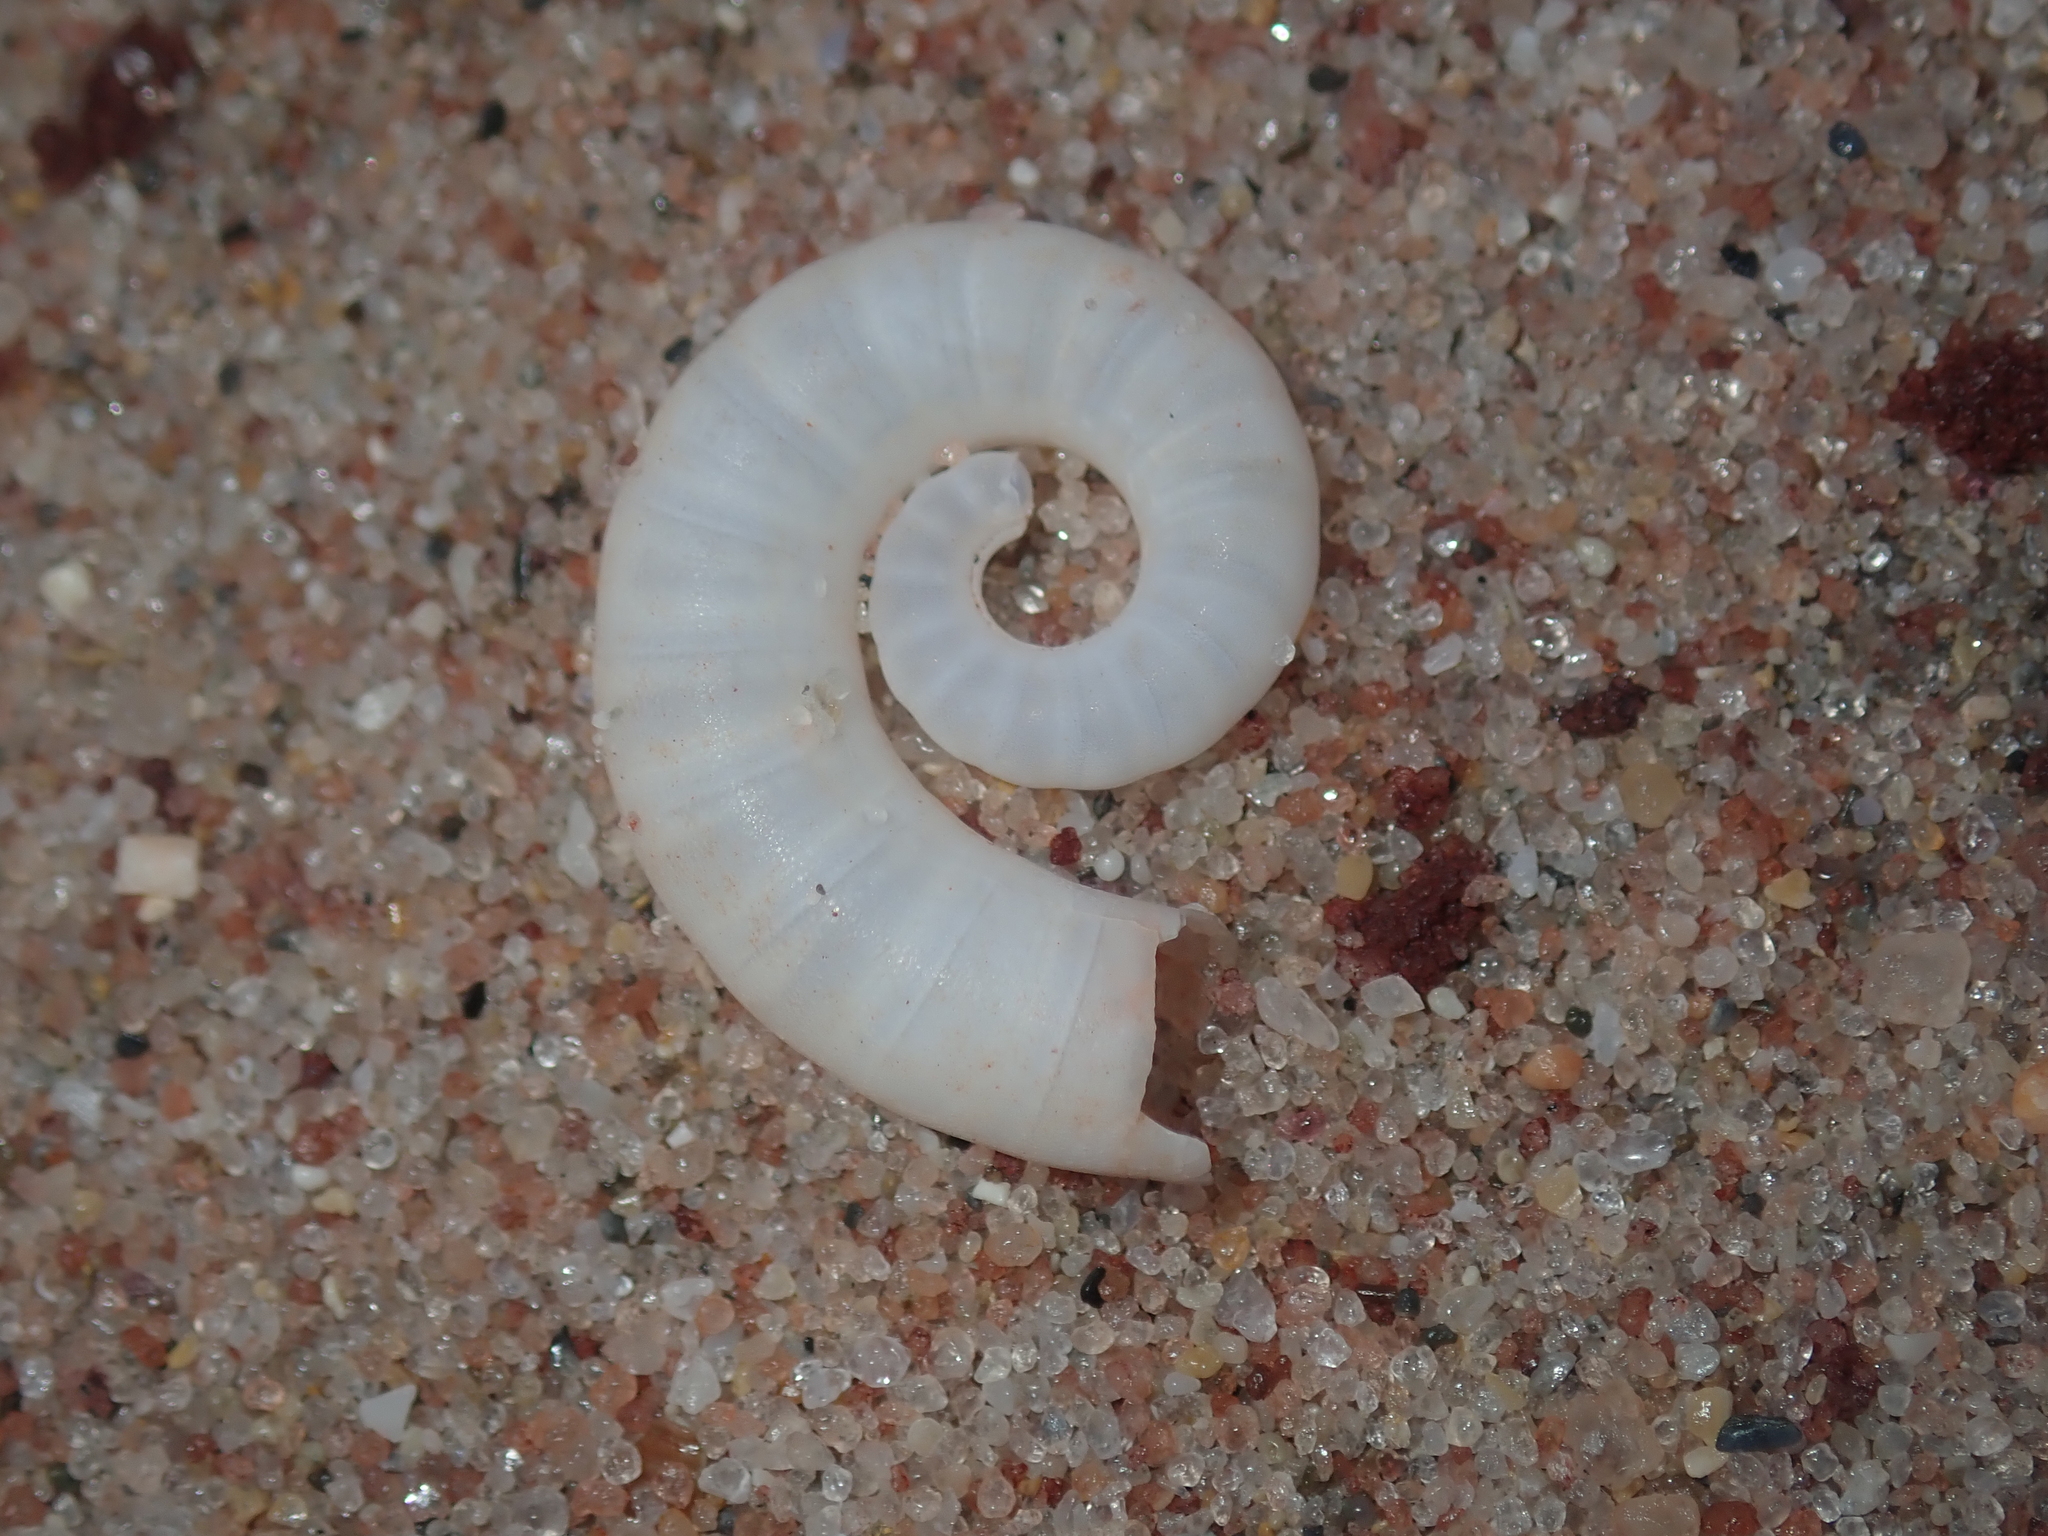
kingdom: Animalia
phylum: Mollusca
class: Cephalopoda
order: Spirulida
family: Spirulidae
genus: Spirula
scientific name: Spirula spirula
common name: Ram's horn squid
